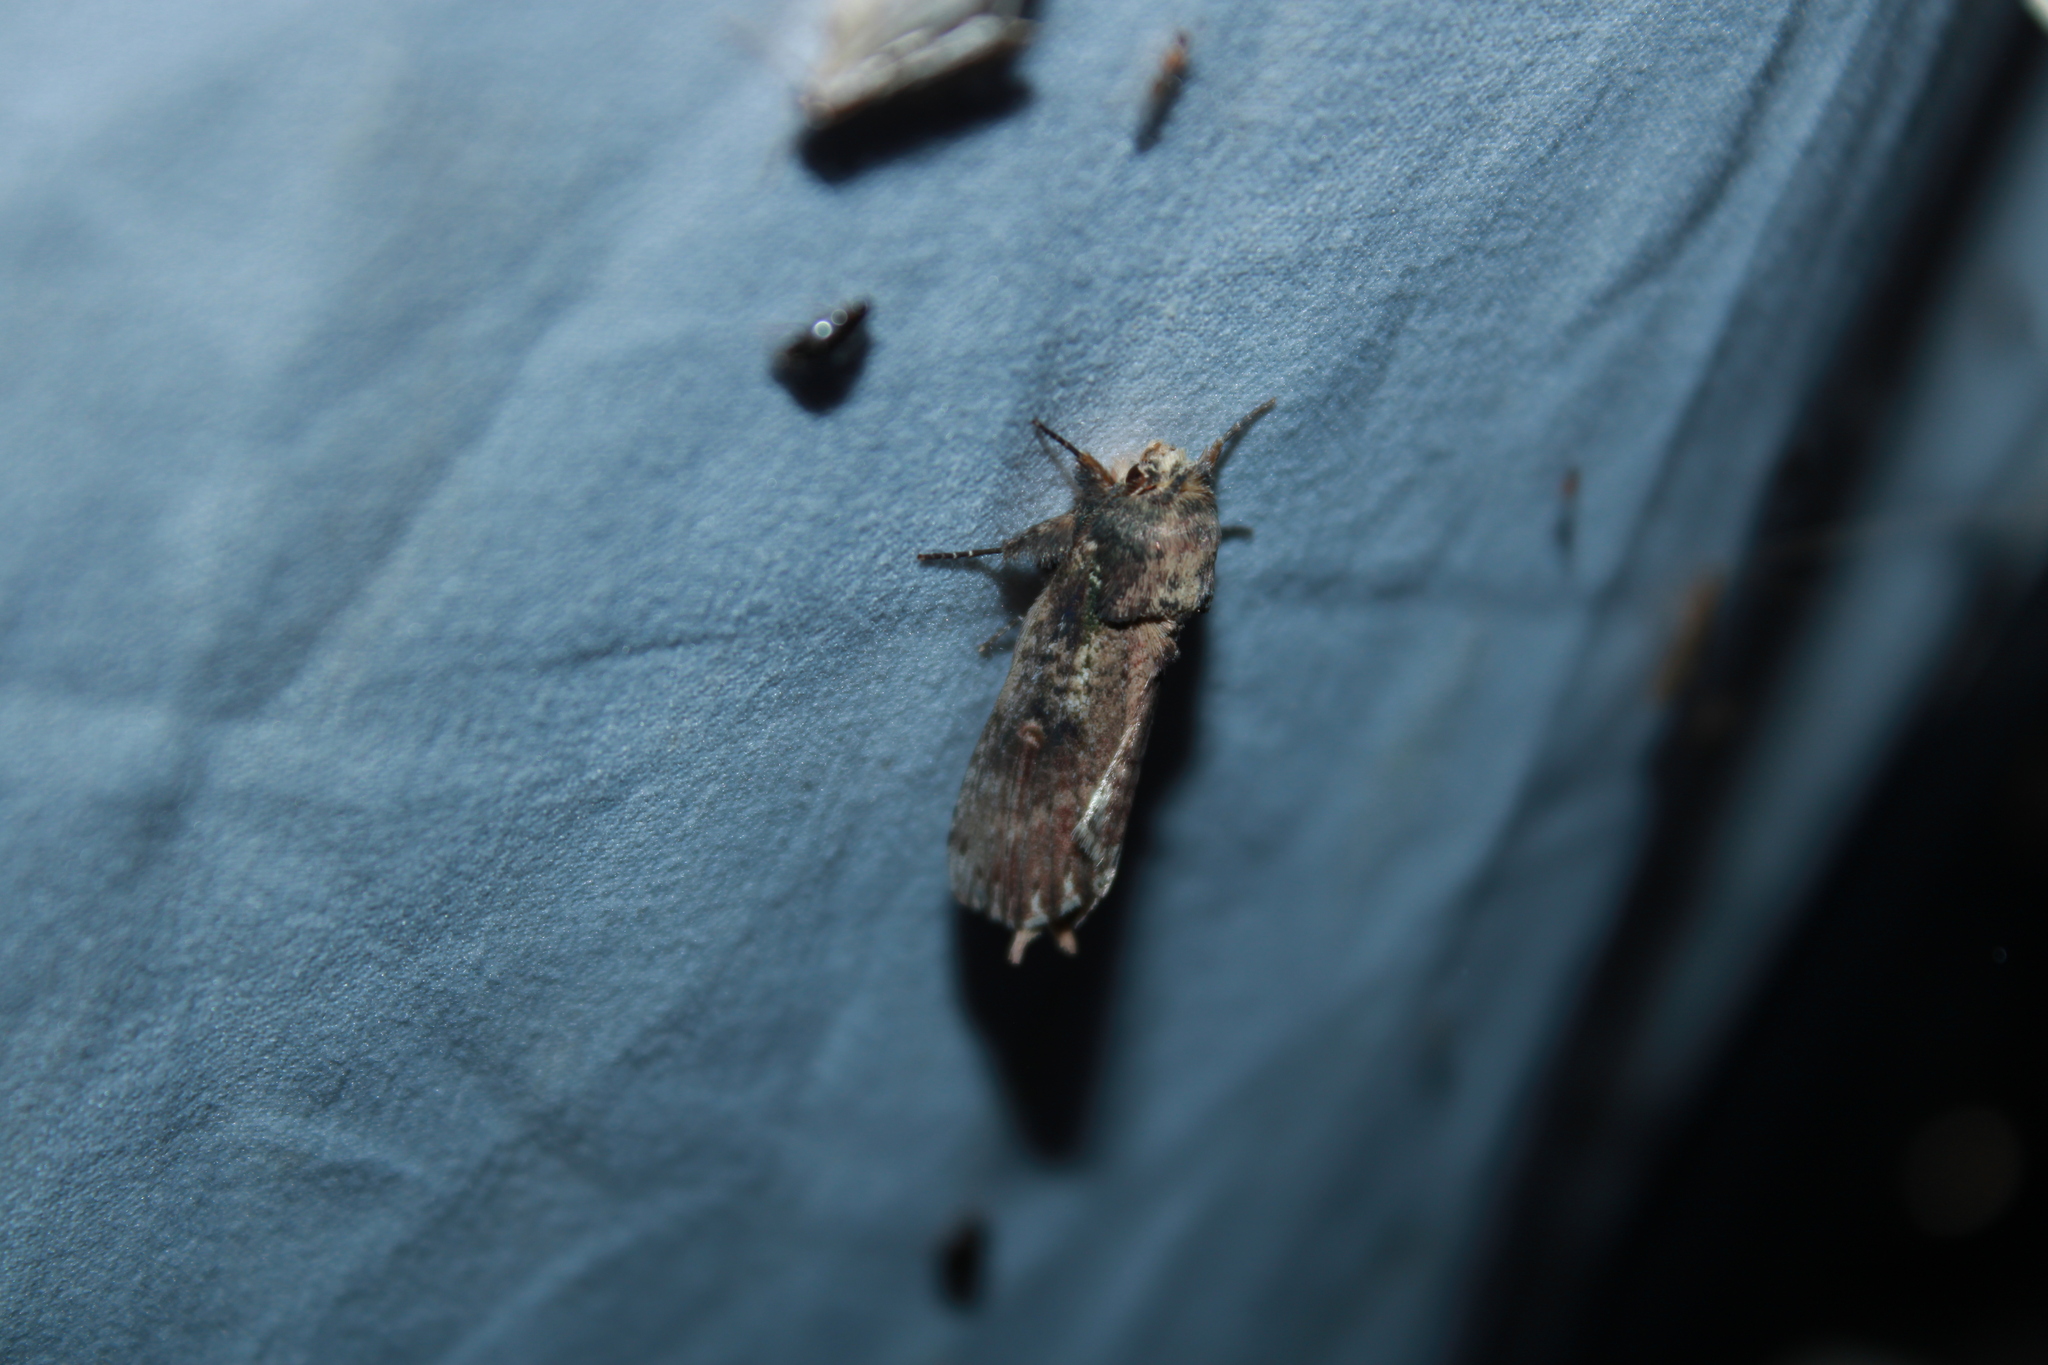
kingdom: Animalia
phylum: Arthropoda
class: Insecta
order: Lepidoptera
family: Notodontidae
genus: Schizura
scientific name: Schizura ipomaeae
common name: Morning-glory prominent
